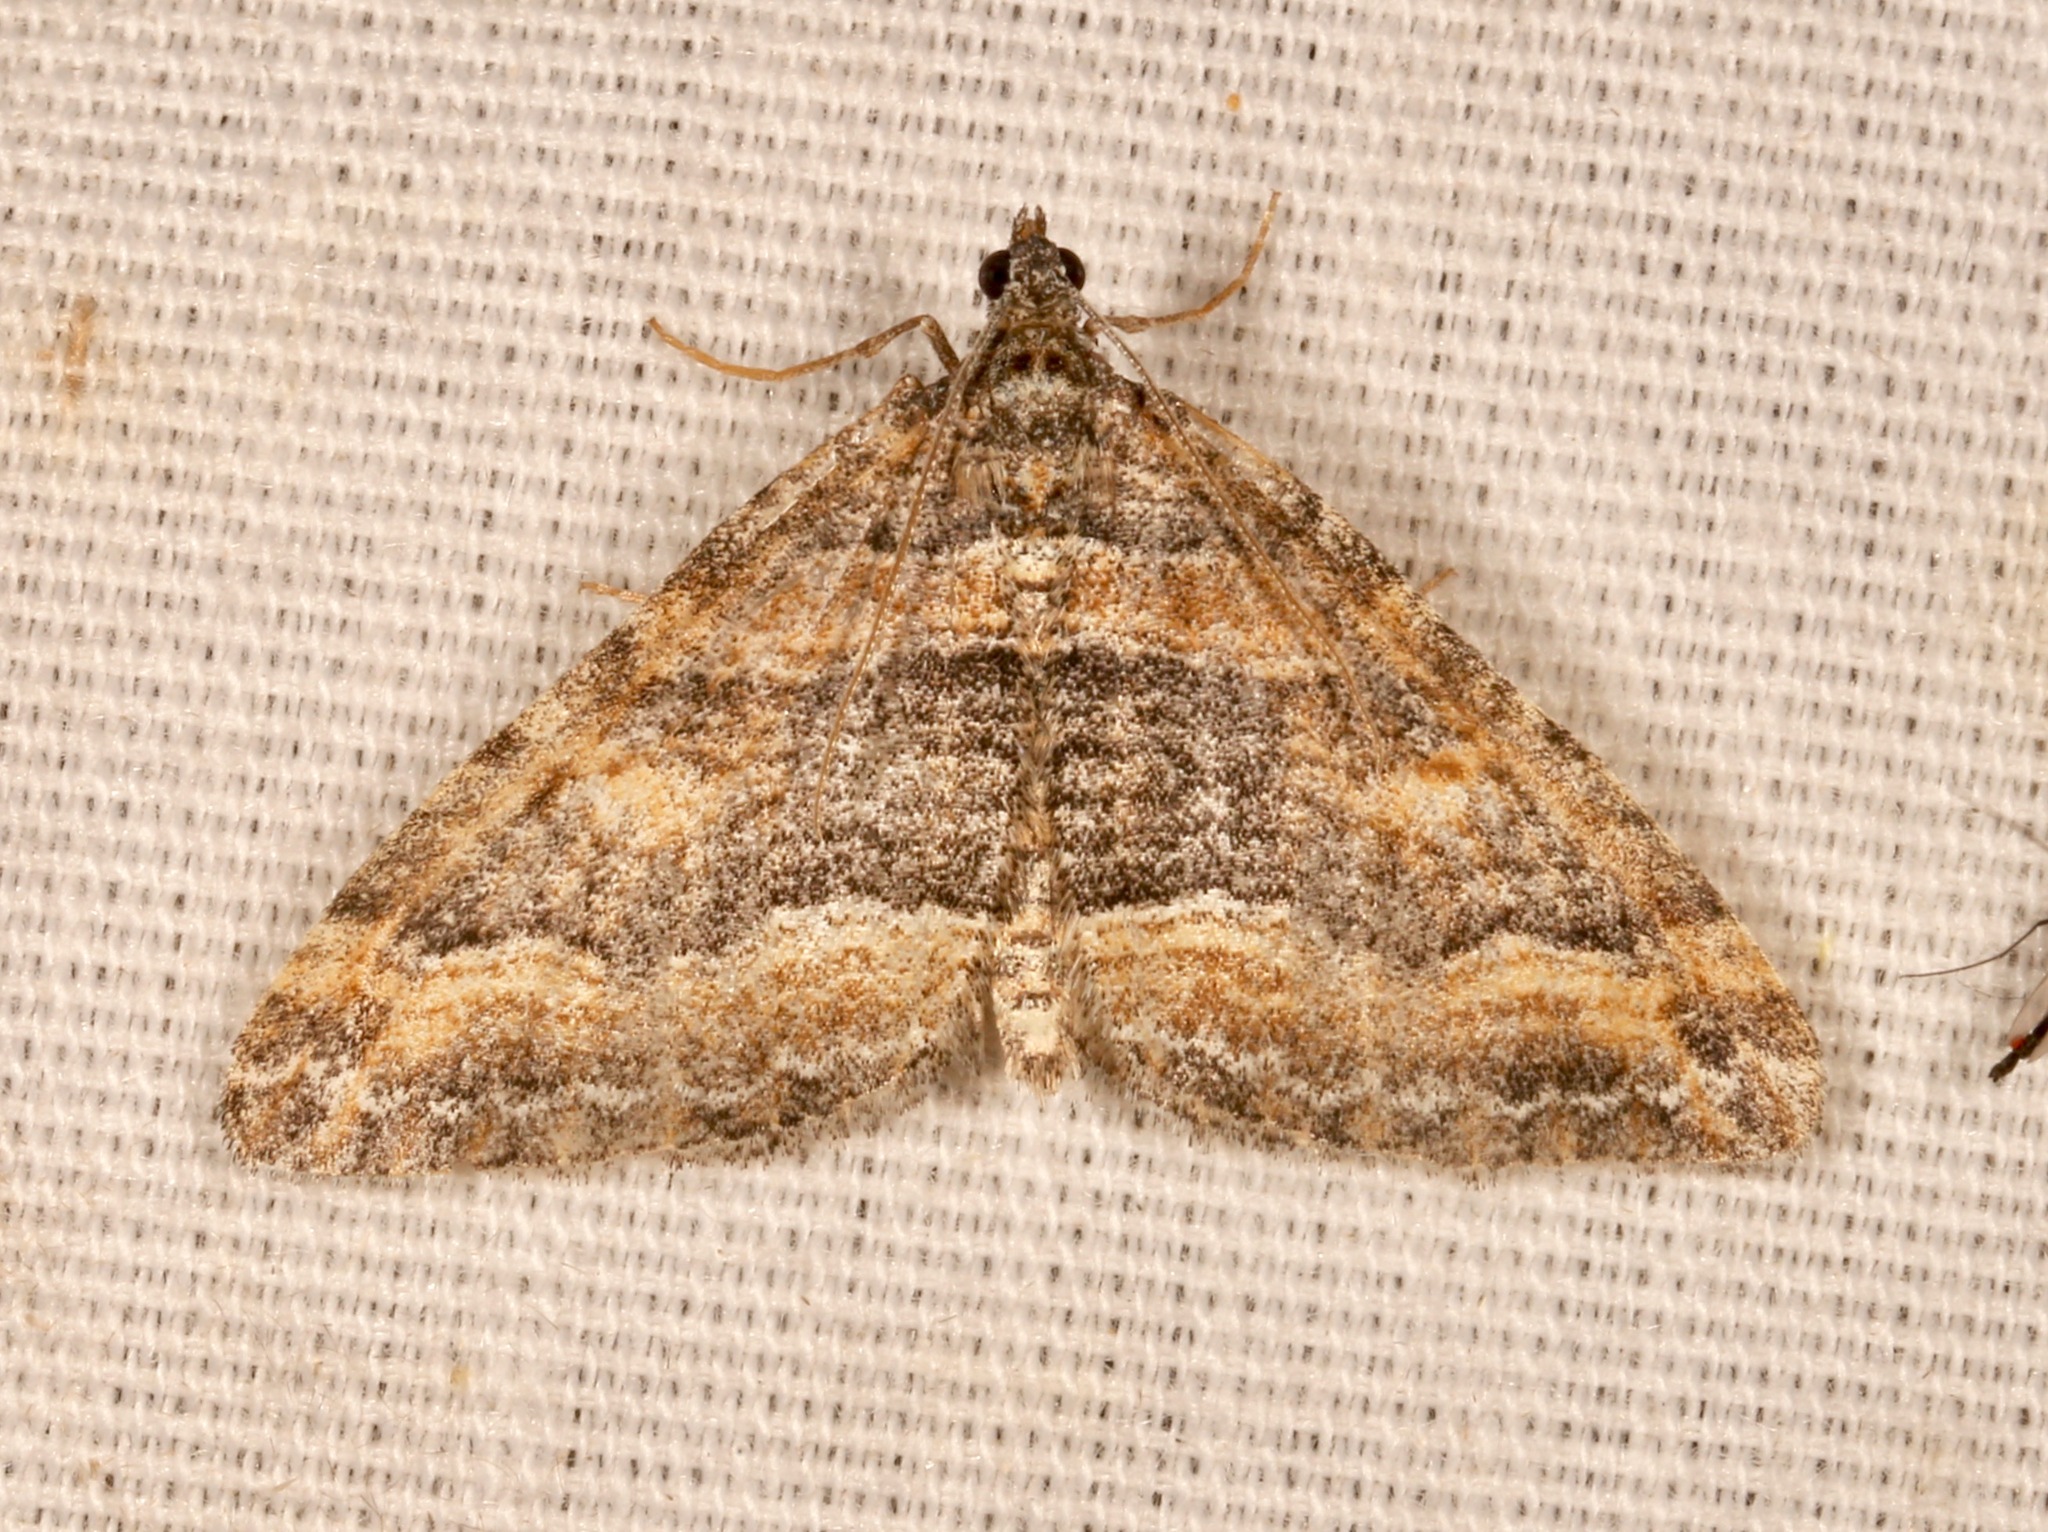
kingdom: Animalia
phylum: Arthropoda
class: Insecta
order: Lepidoptera
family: Geometridae
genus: Perizoma
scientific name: Perizoma custodiata
